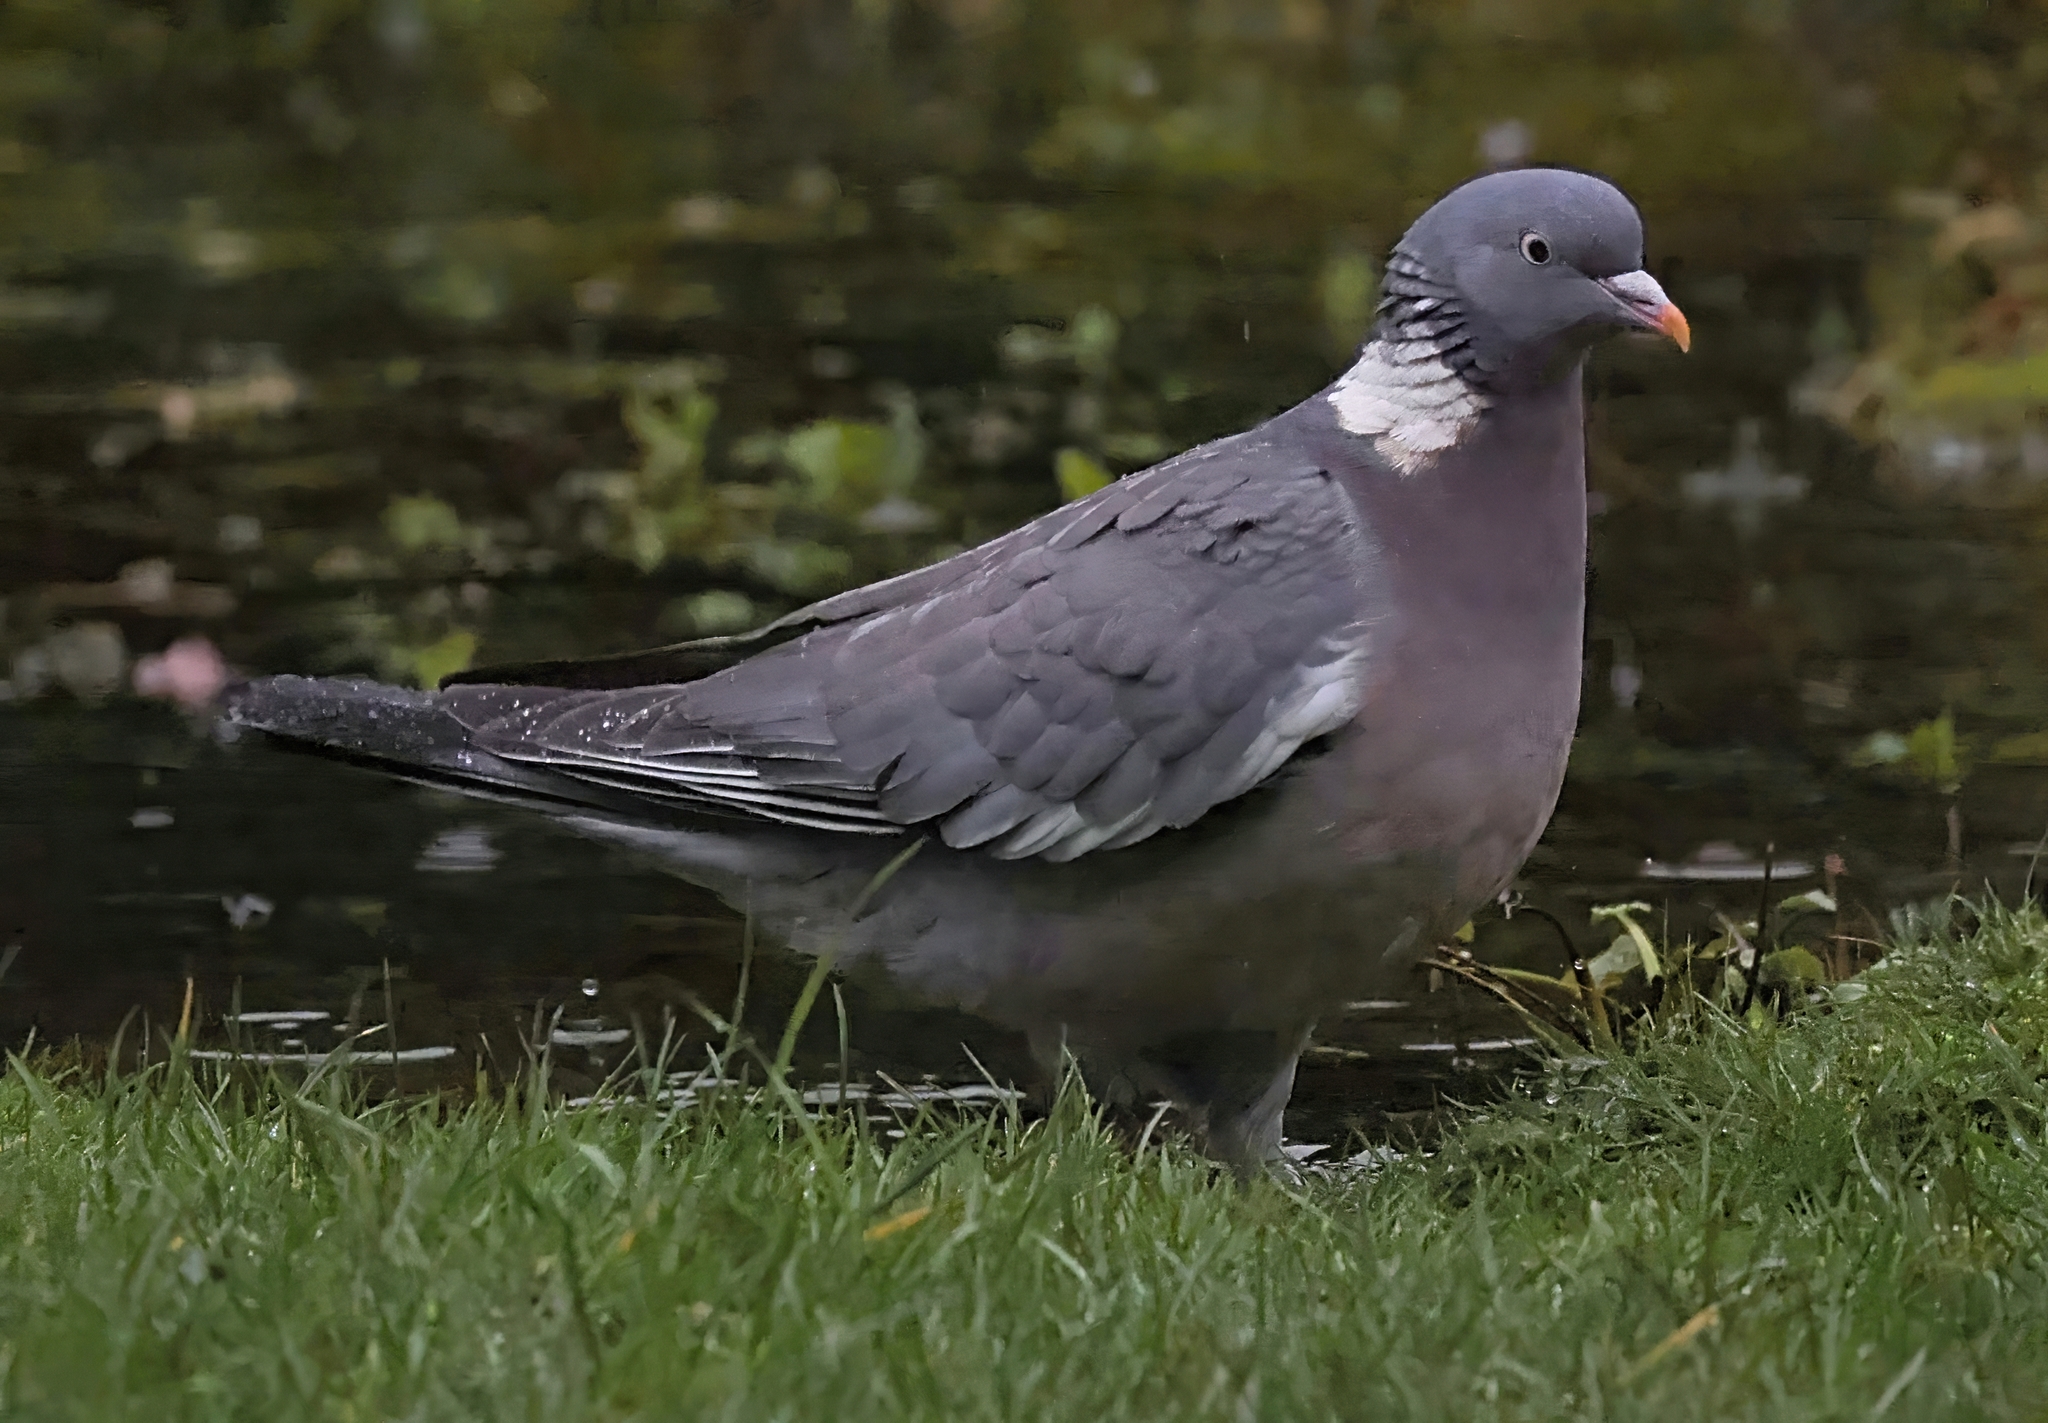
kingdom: Animalia
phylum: Chordata
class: Aves
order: Columbiformes
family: Columbidae
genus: Columba
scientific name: Columba palumbus
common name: Common wood pigeon
